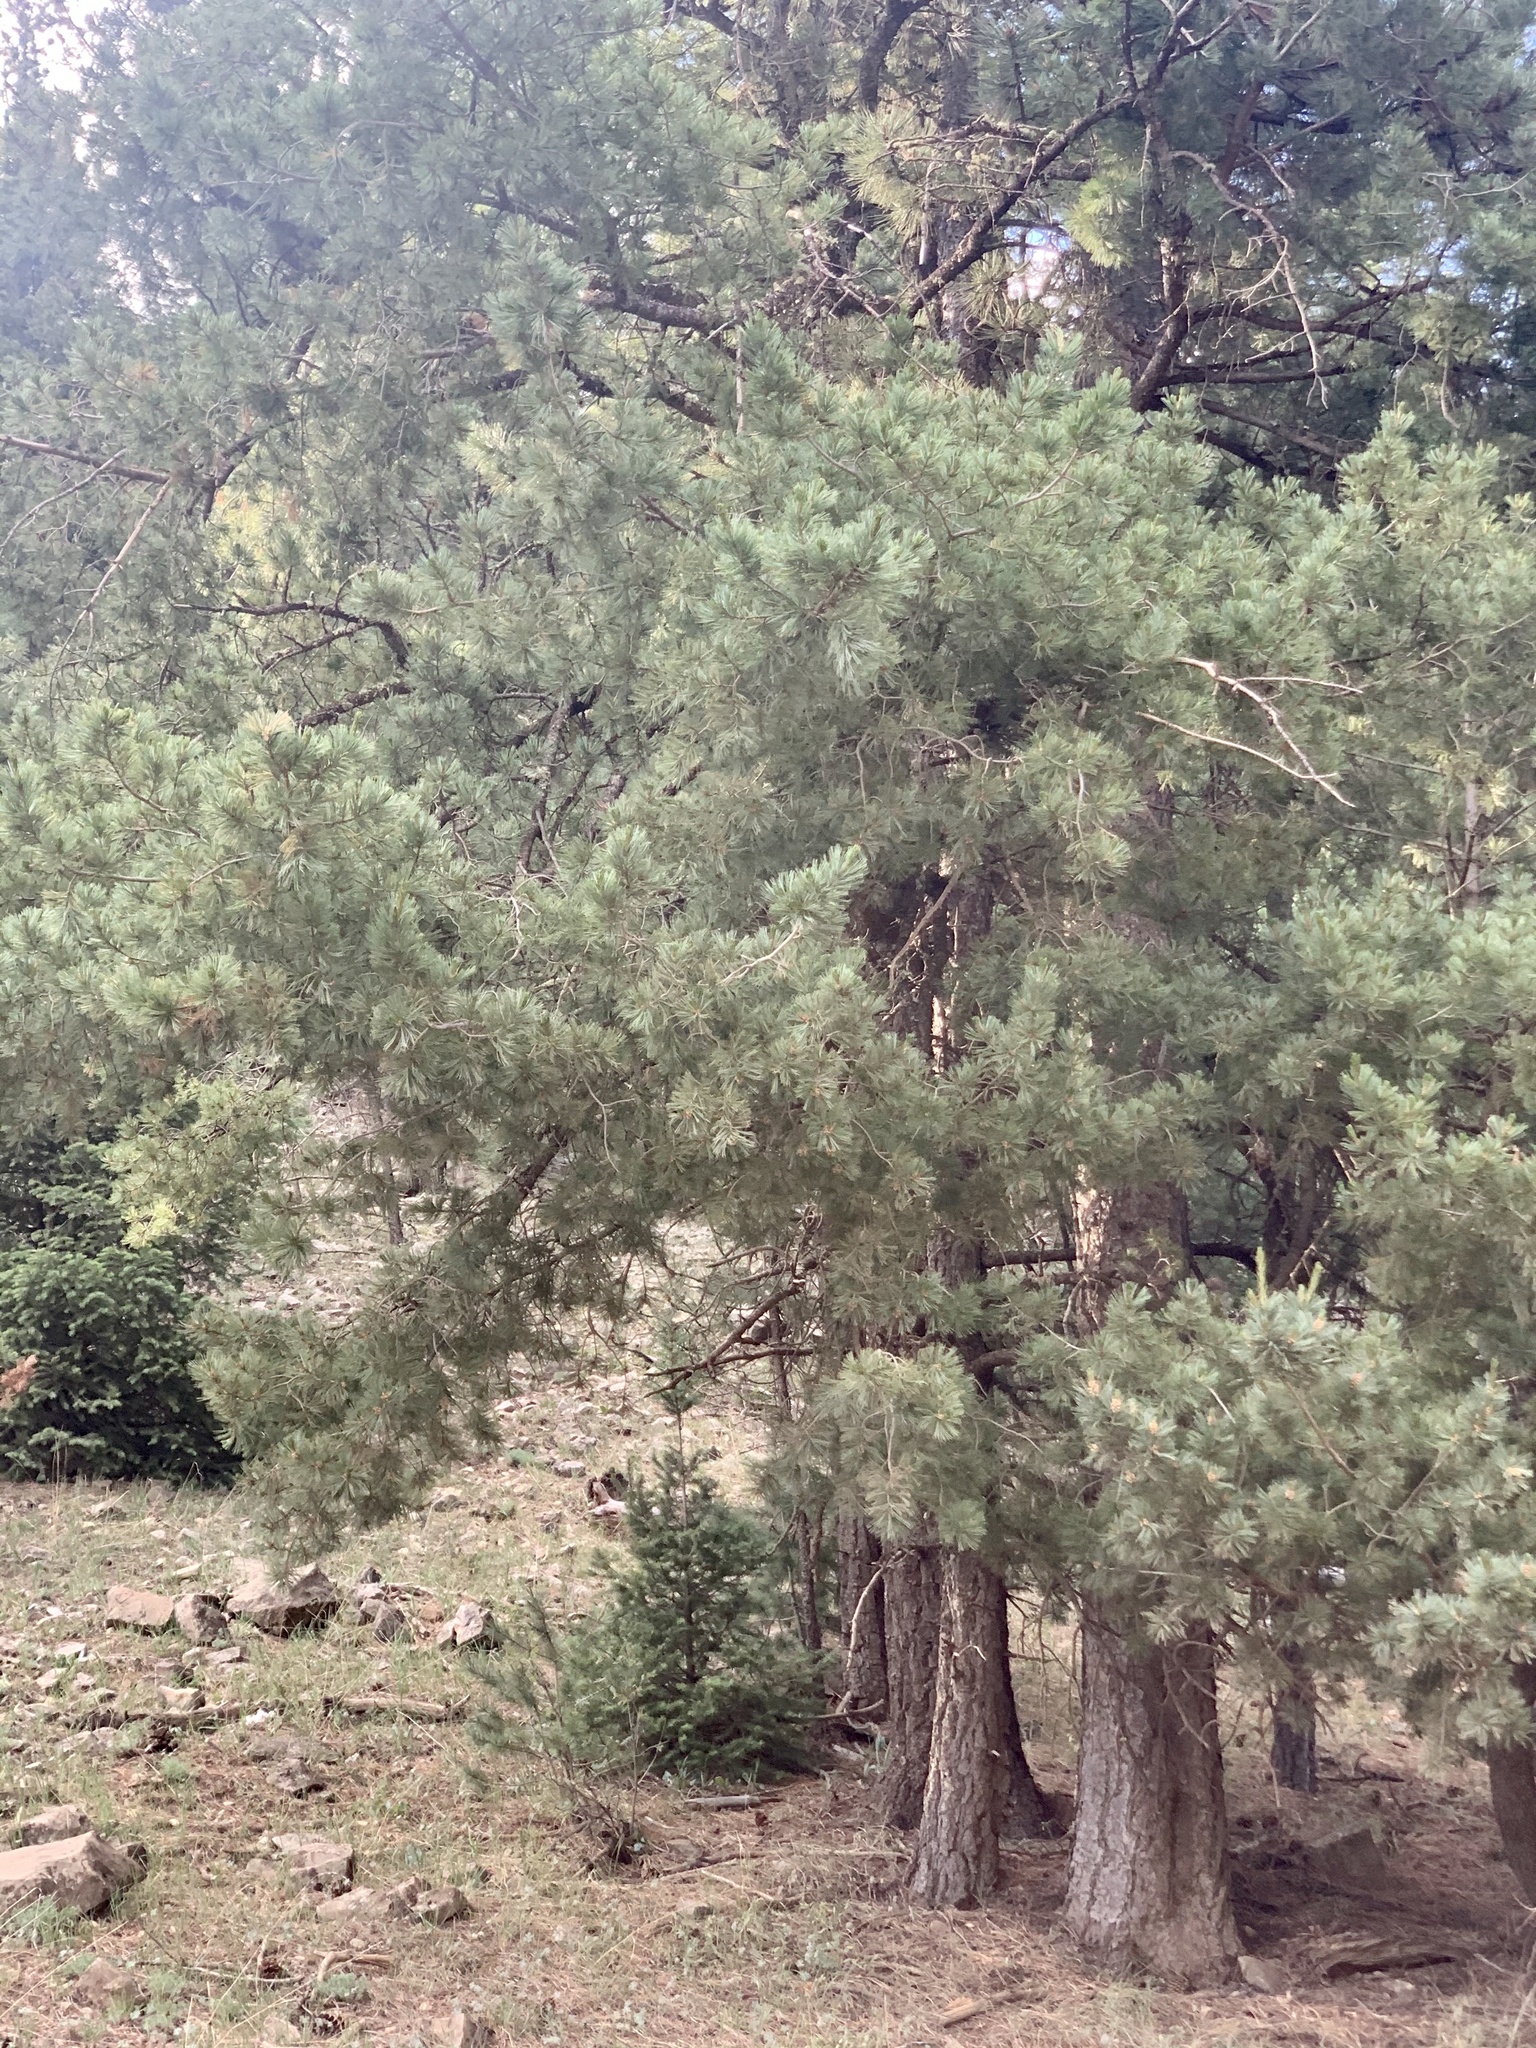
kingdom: Plantae
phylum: Tracheophyta
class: Pinopsida
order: Pinales
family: Pinaceae
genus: Pinus
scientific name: Pinus strobiformis
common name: Southwestern white pine
